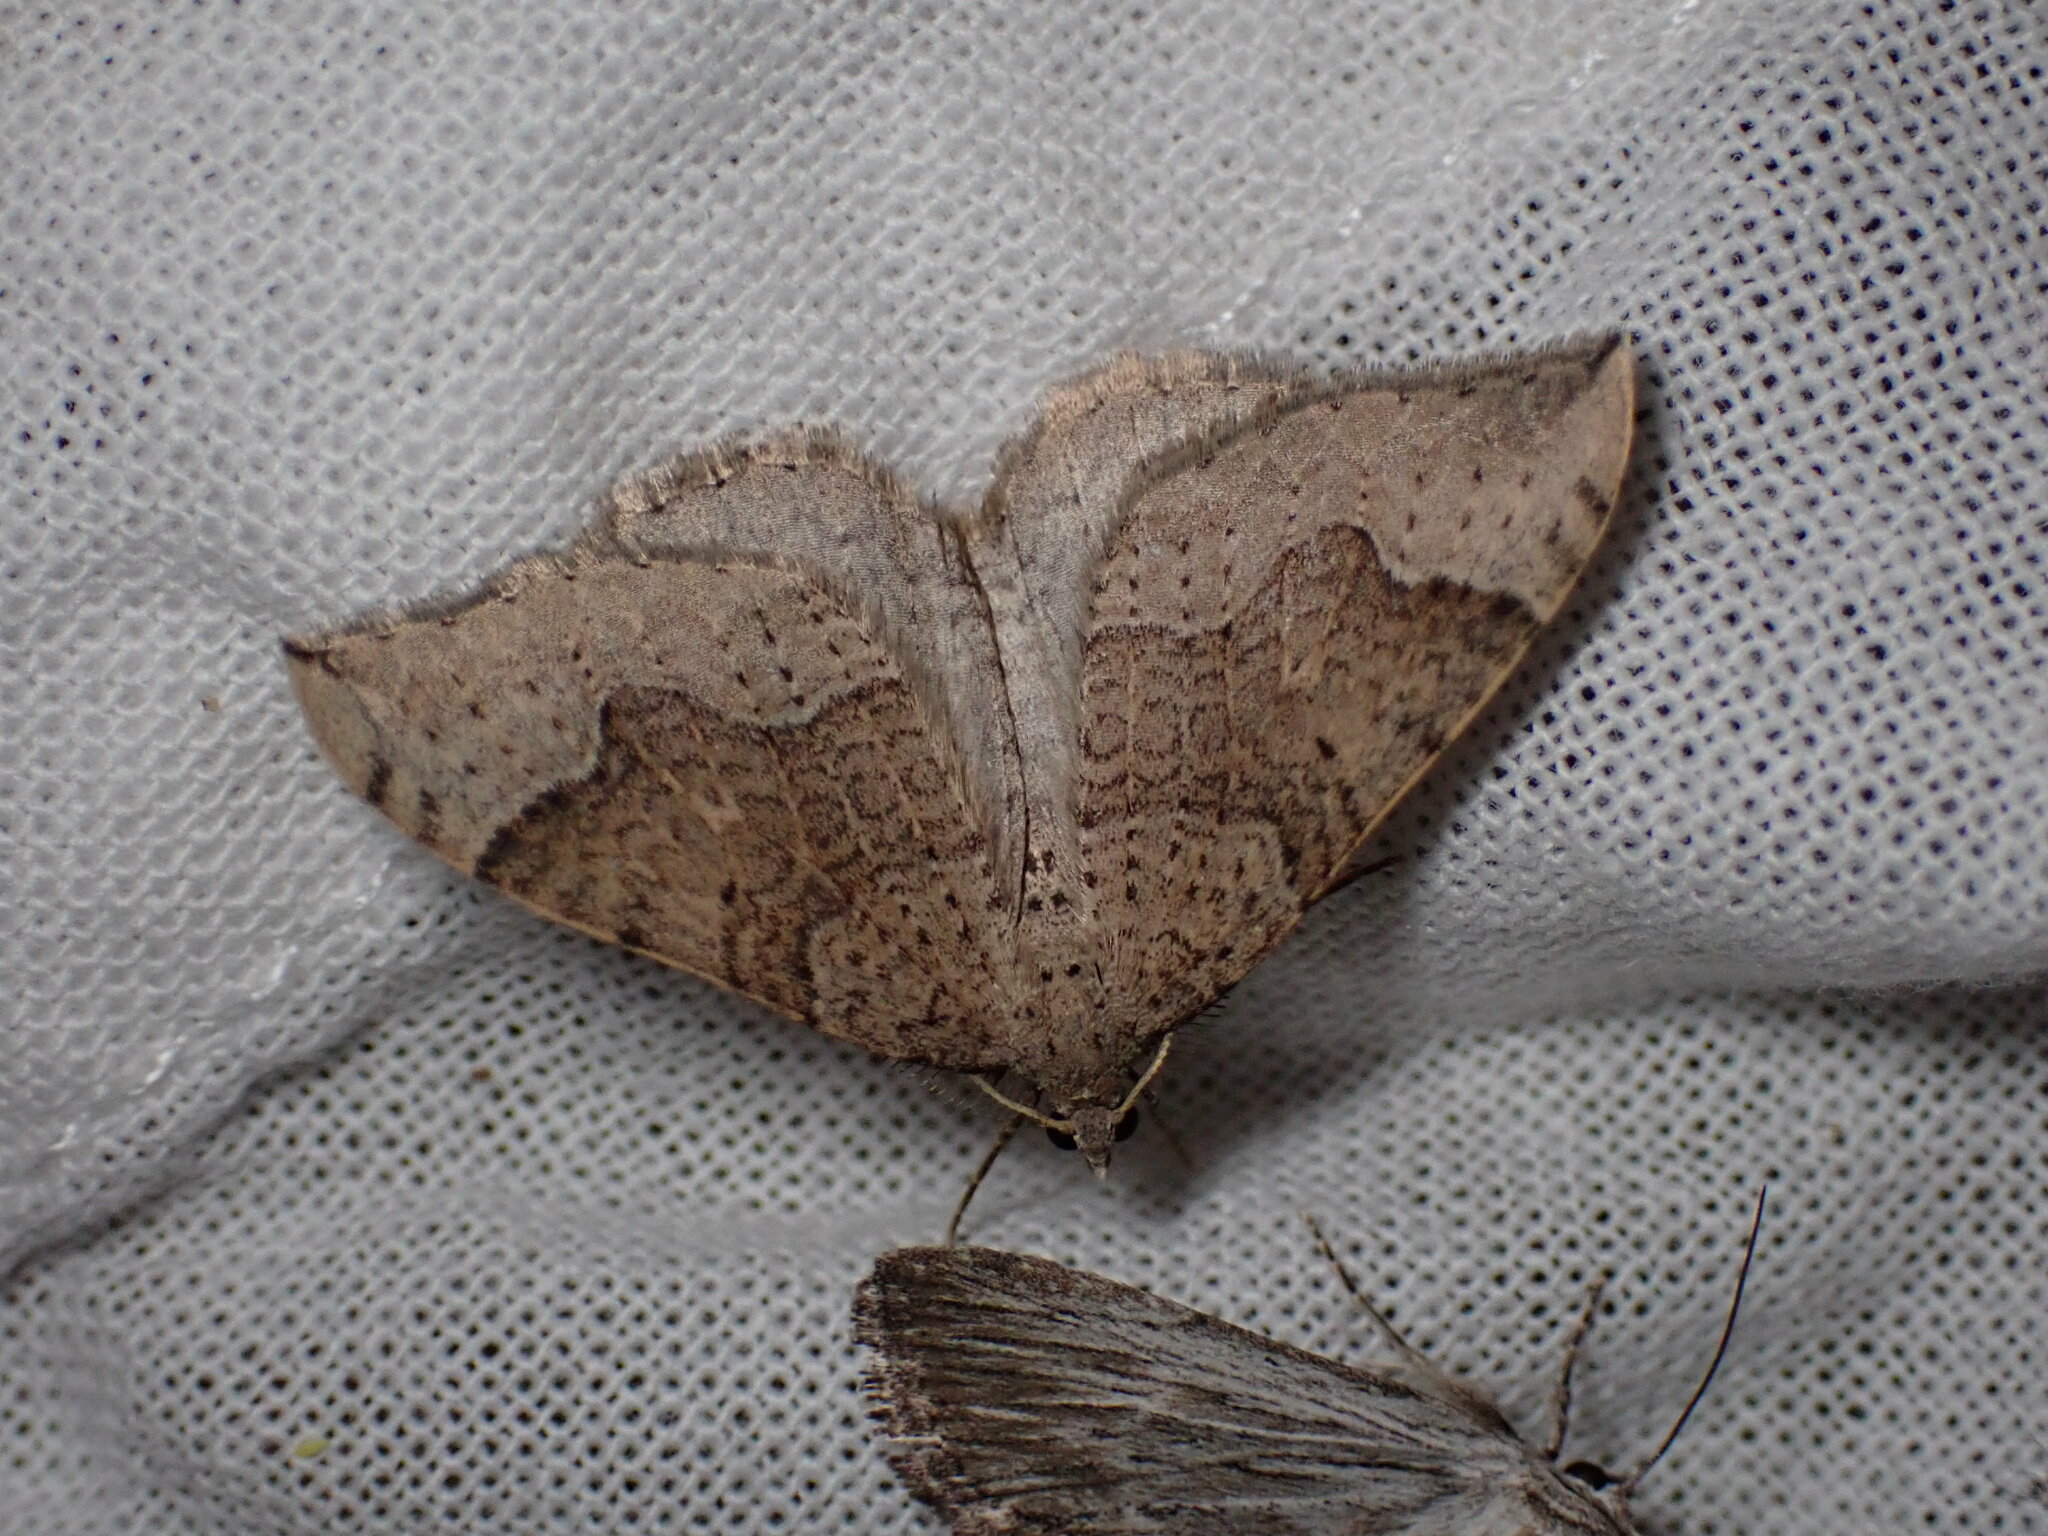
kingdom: Animalia
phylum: Arthropoda
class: Insecta
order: Lepidoptera
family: Geometridae
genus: Zenophleps
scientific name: Zenophleps lignicolorata
